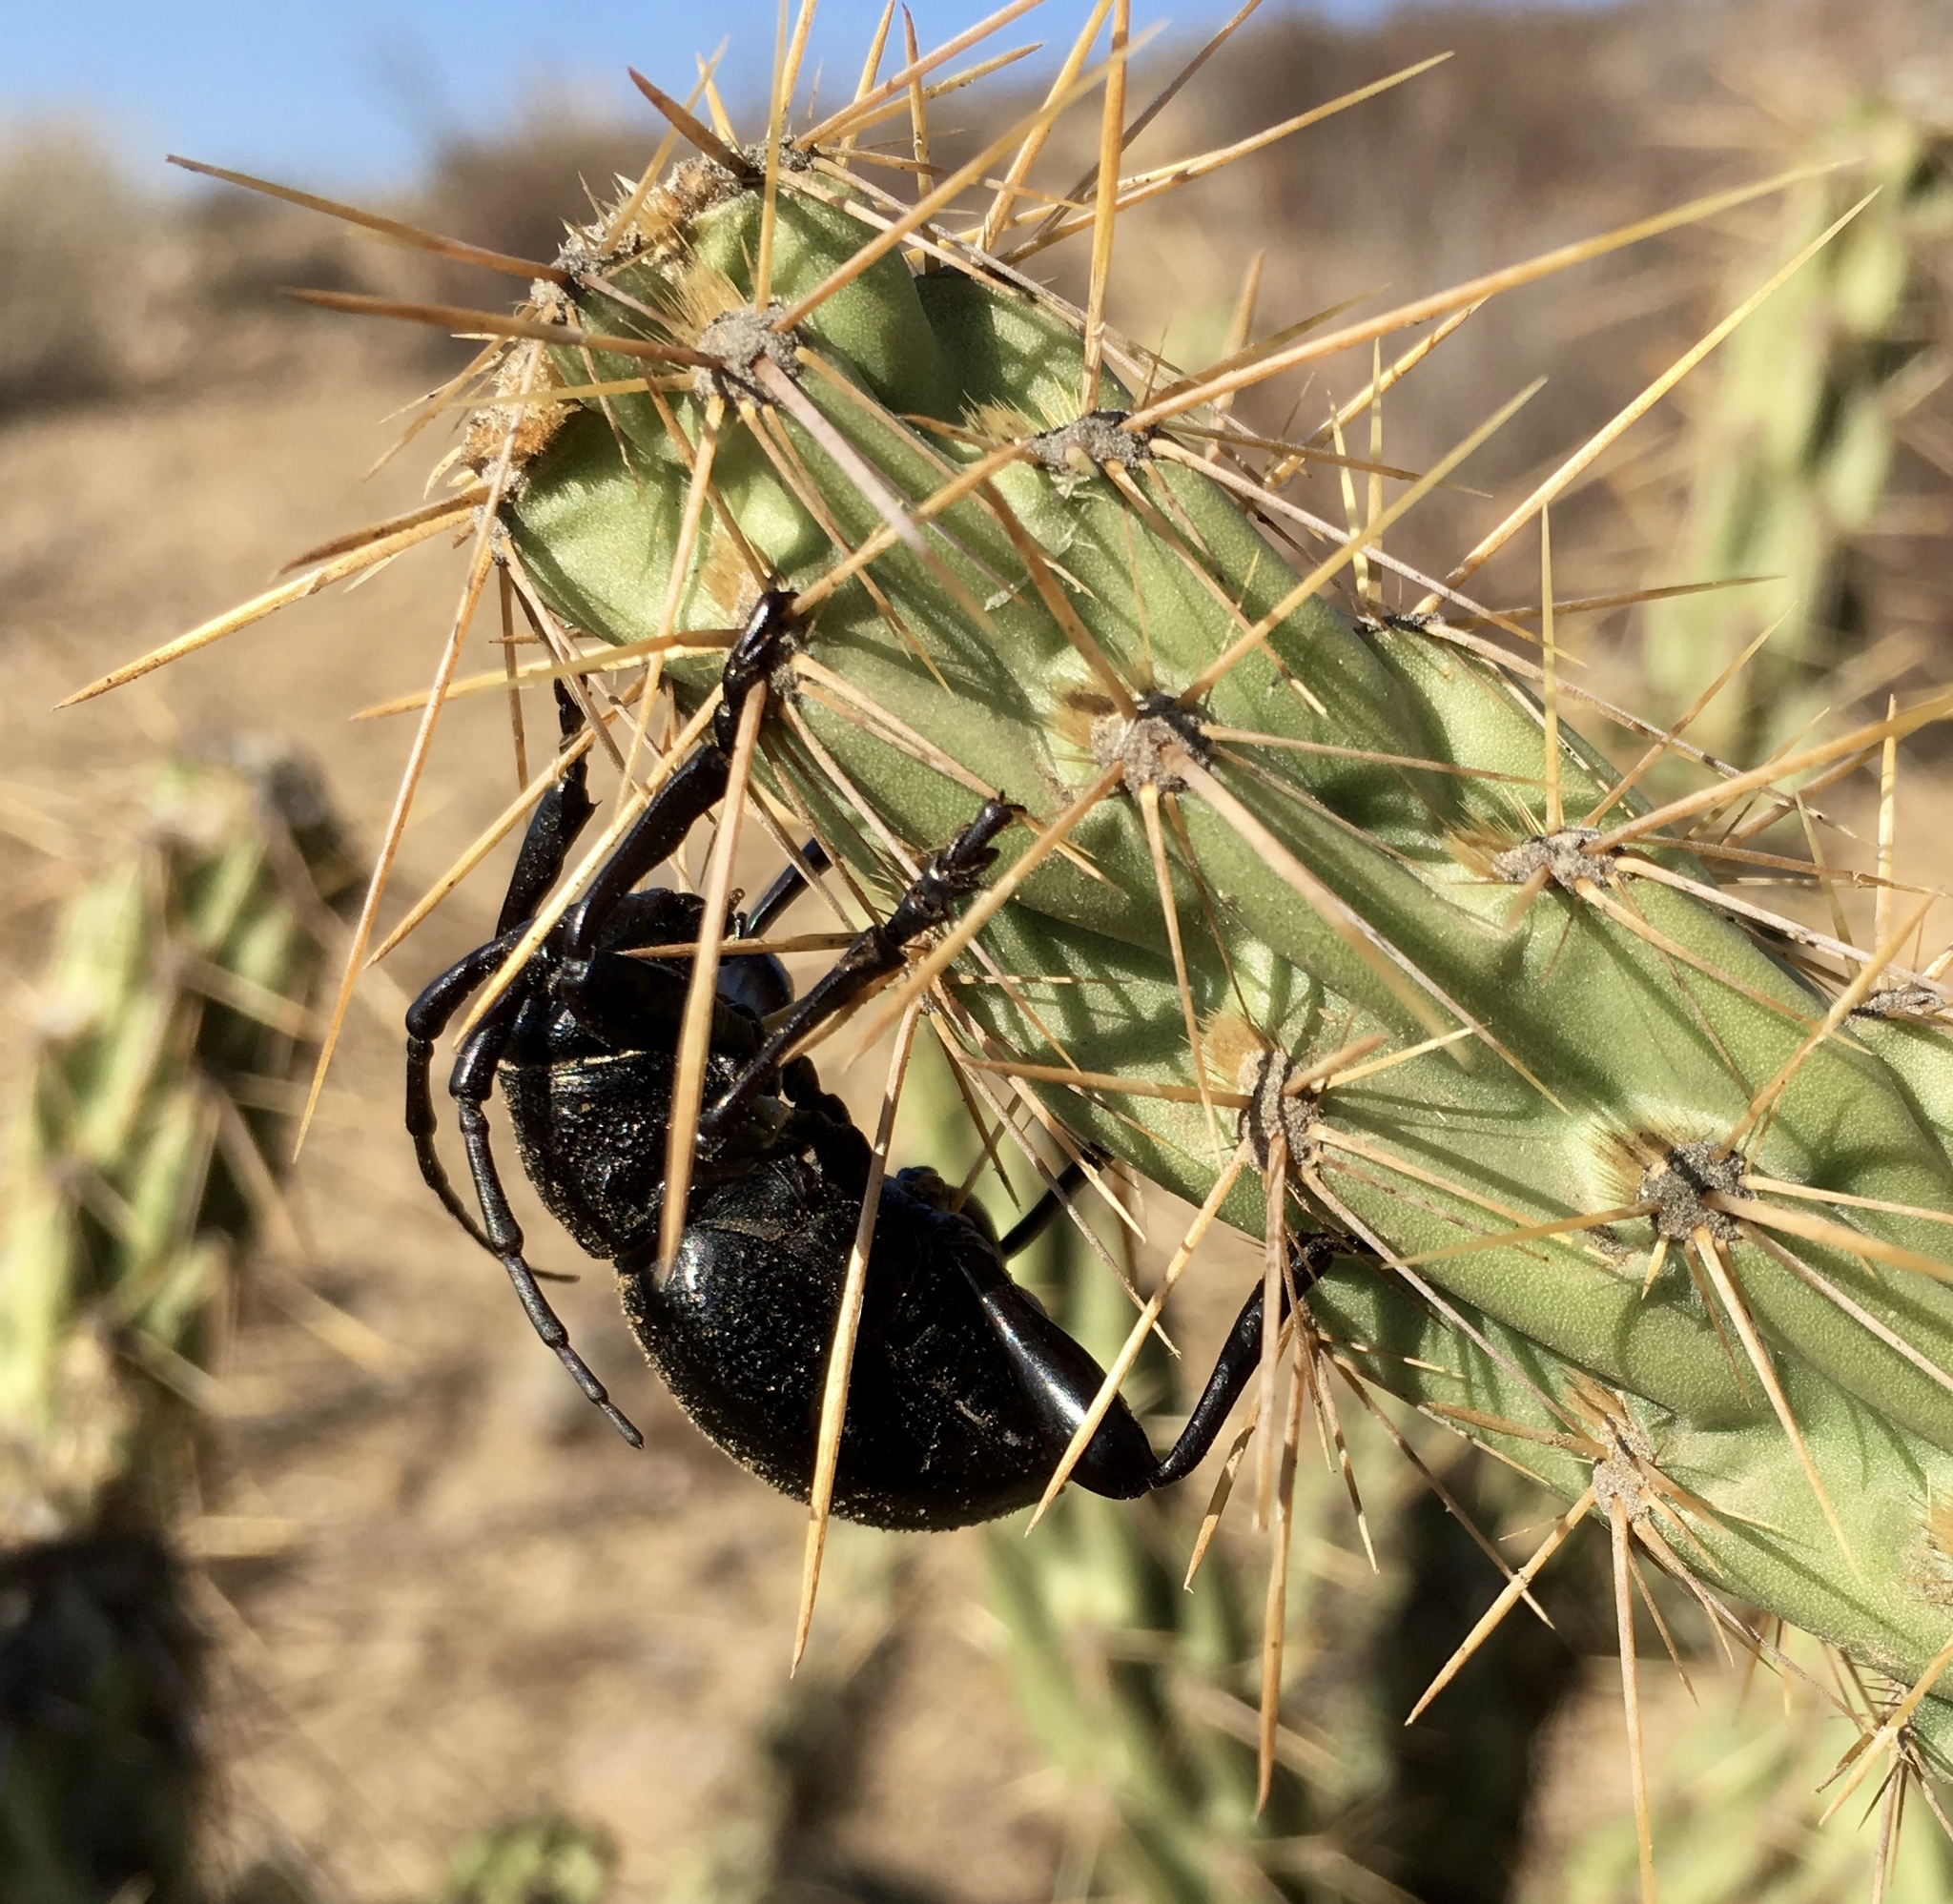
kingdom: Animalia
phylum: Arthropoda
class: Insecta
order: Coleoptera
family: Cerambycidae
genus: Moneilema
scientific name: Moneilema semipunctatum
